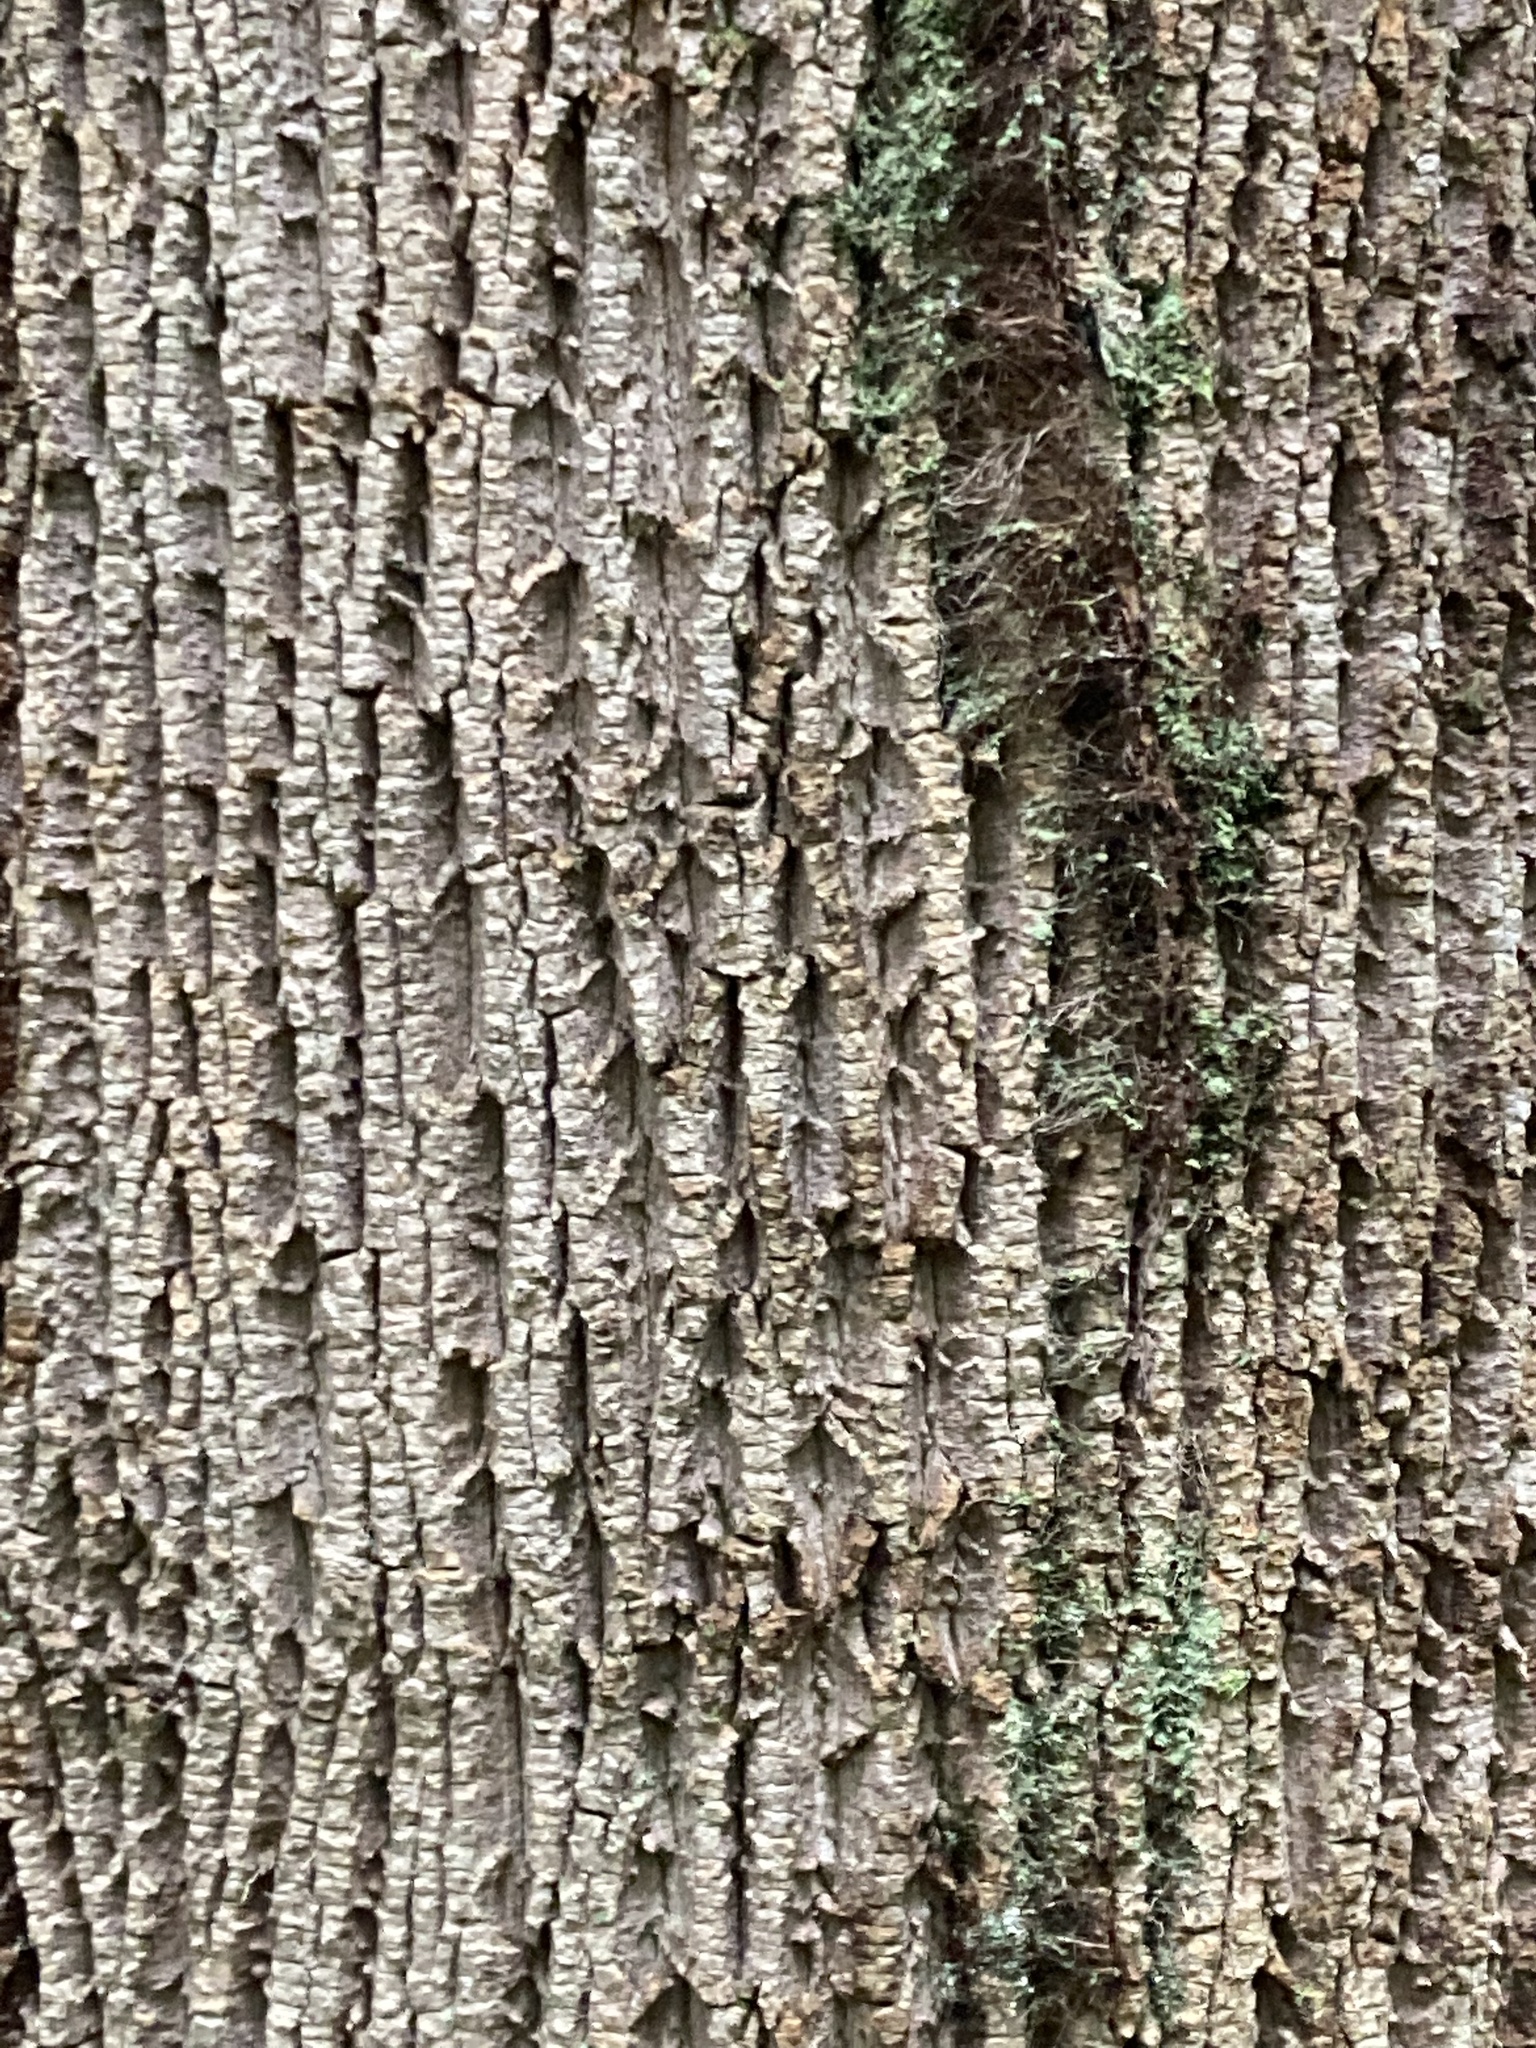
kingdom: Plantae
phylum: Tracheophyta
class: Magnoliopsida
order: Magnoliales
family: Magnoliaceae
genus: Liriodendron
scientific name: Liriodendron tulipifera
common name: Tulip tree
